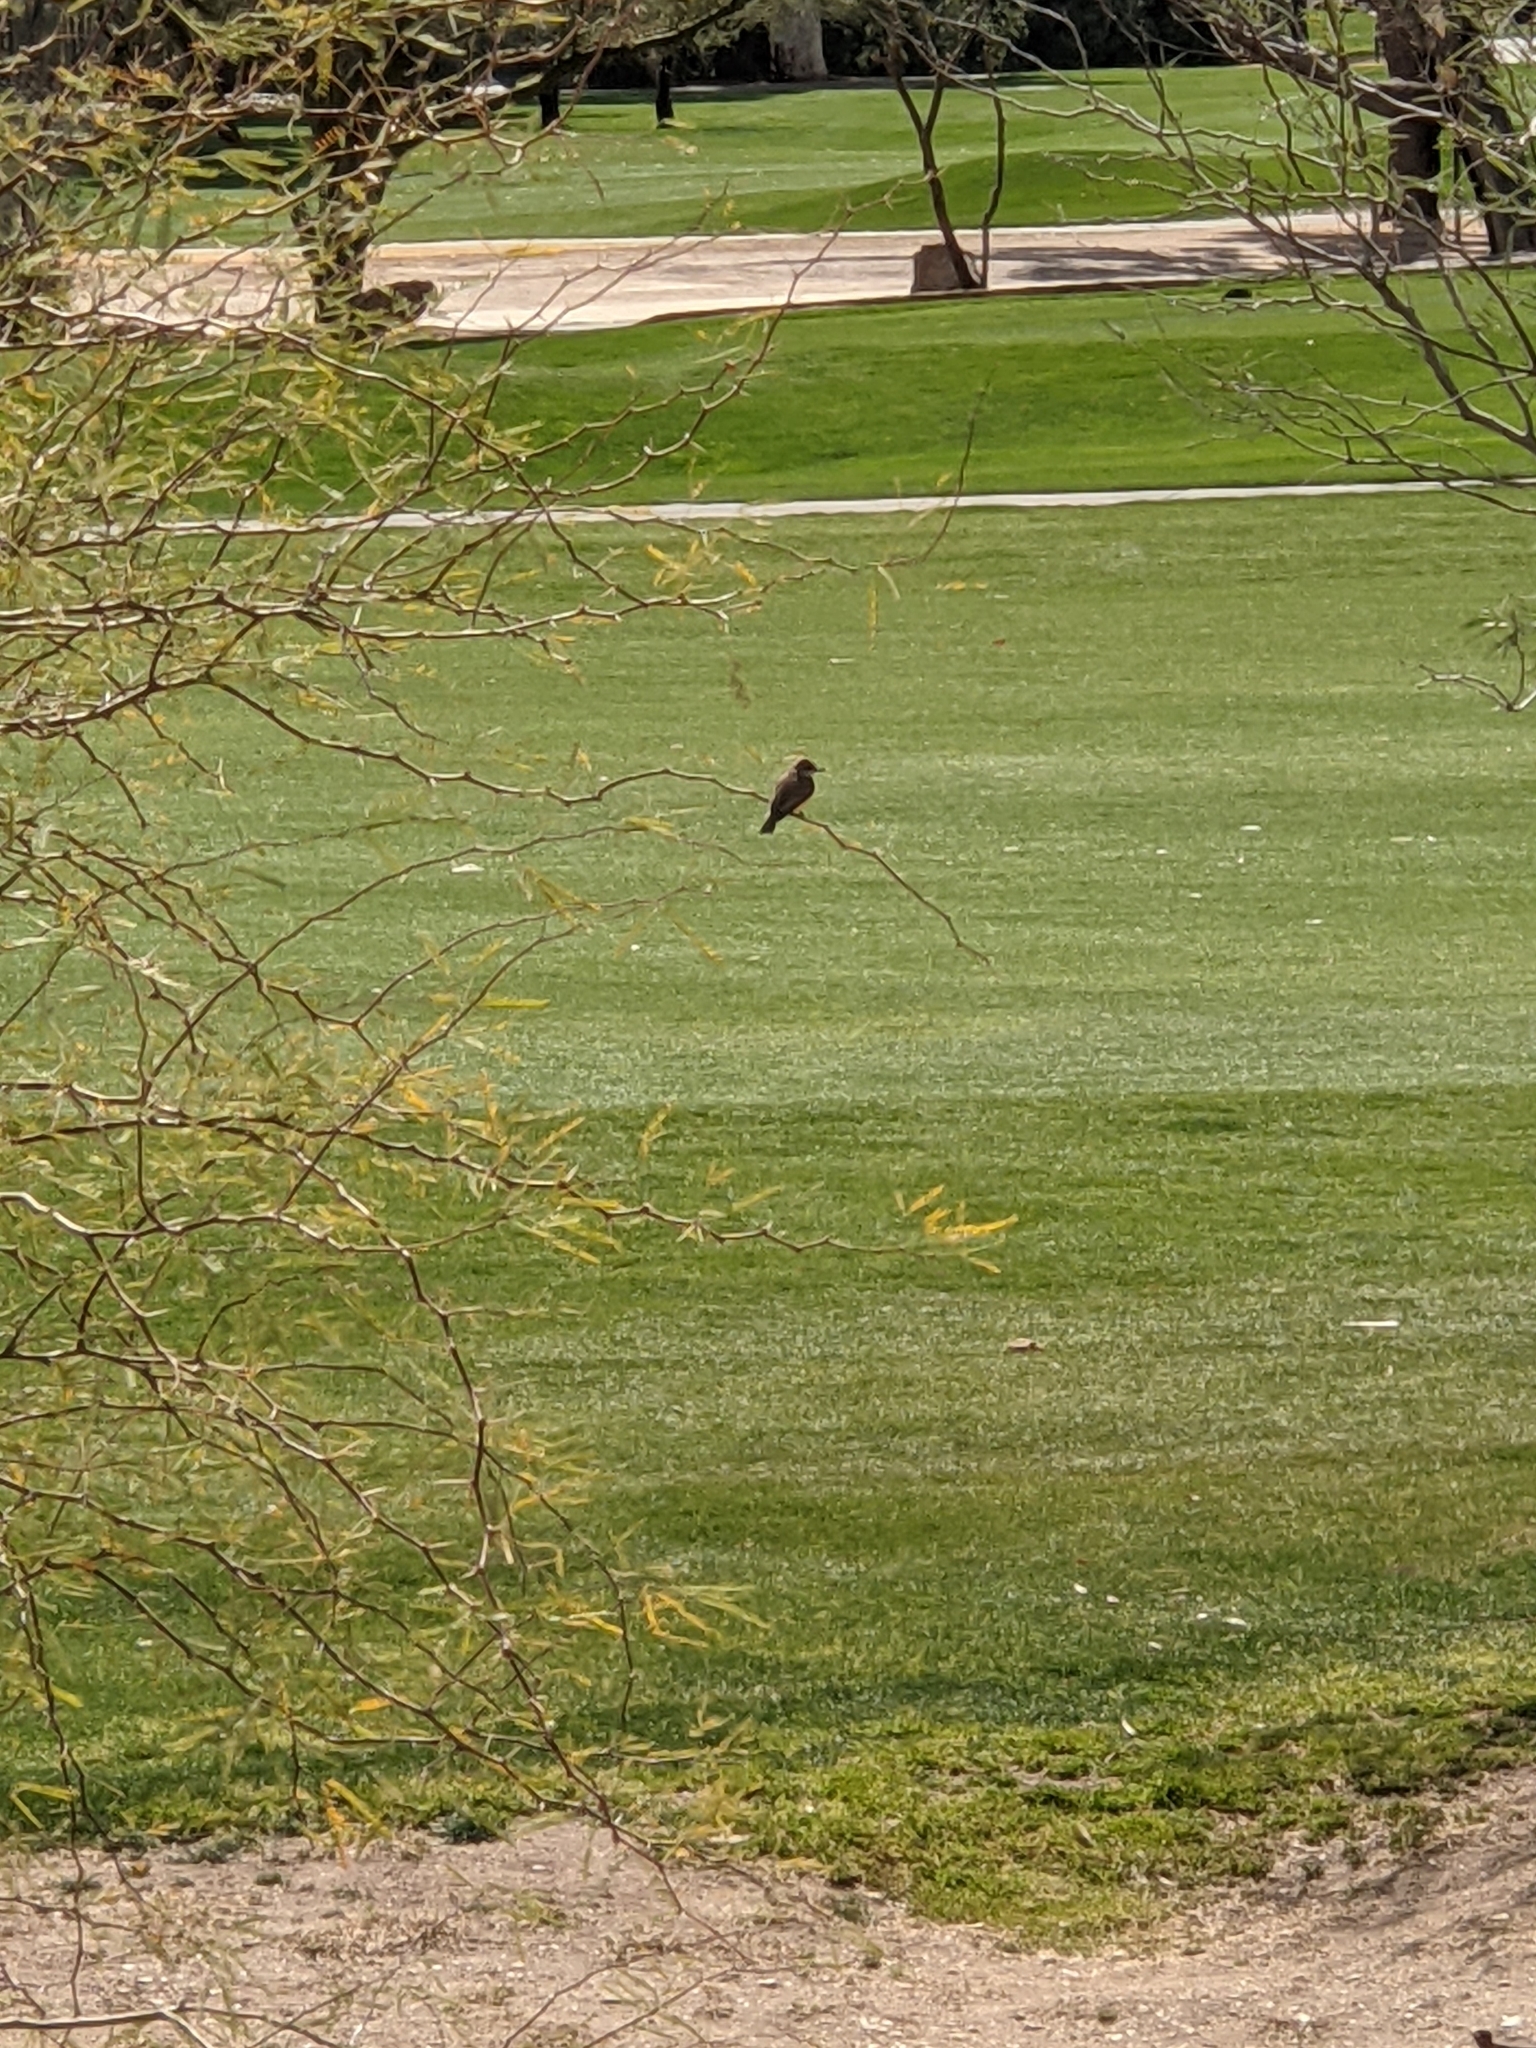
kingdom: Animalia
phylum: Chordata
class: Aves
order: Passeriformes
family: Tyrannidae
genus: Pyrocephalus
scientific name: Pyrocephalus rubinus
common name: Vermilion flycatcher
